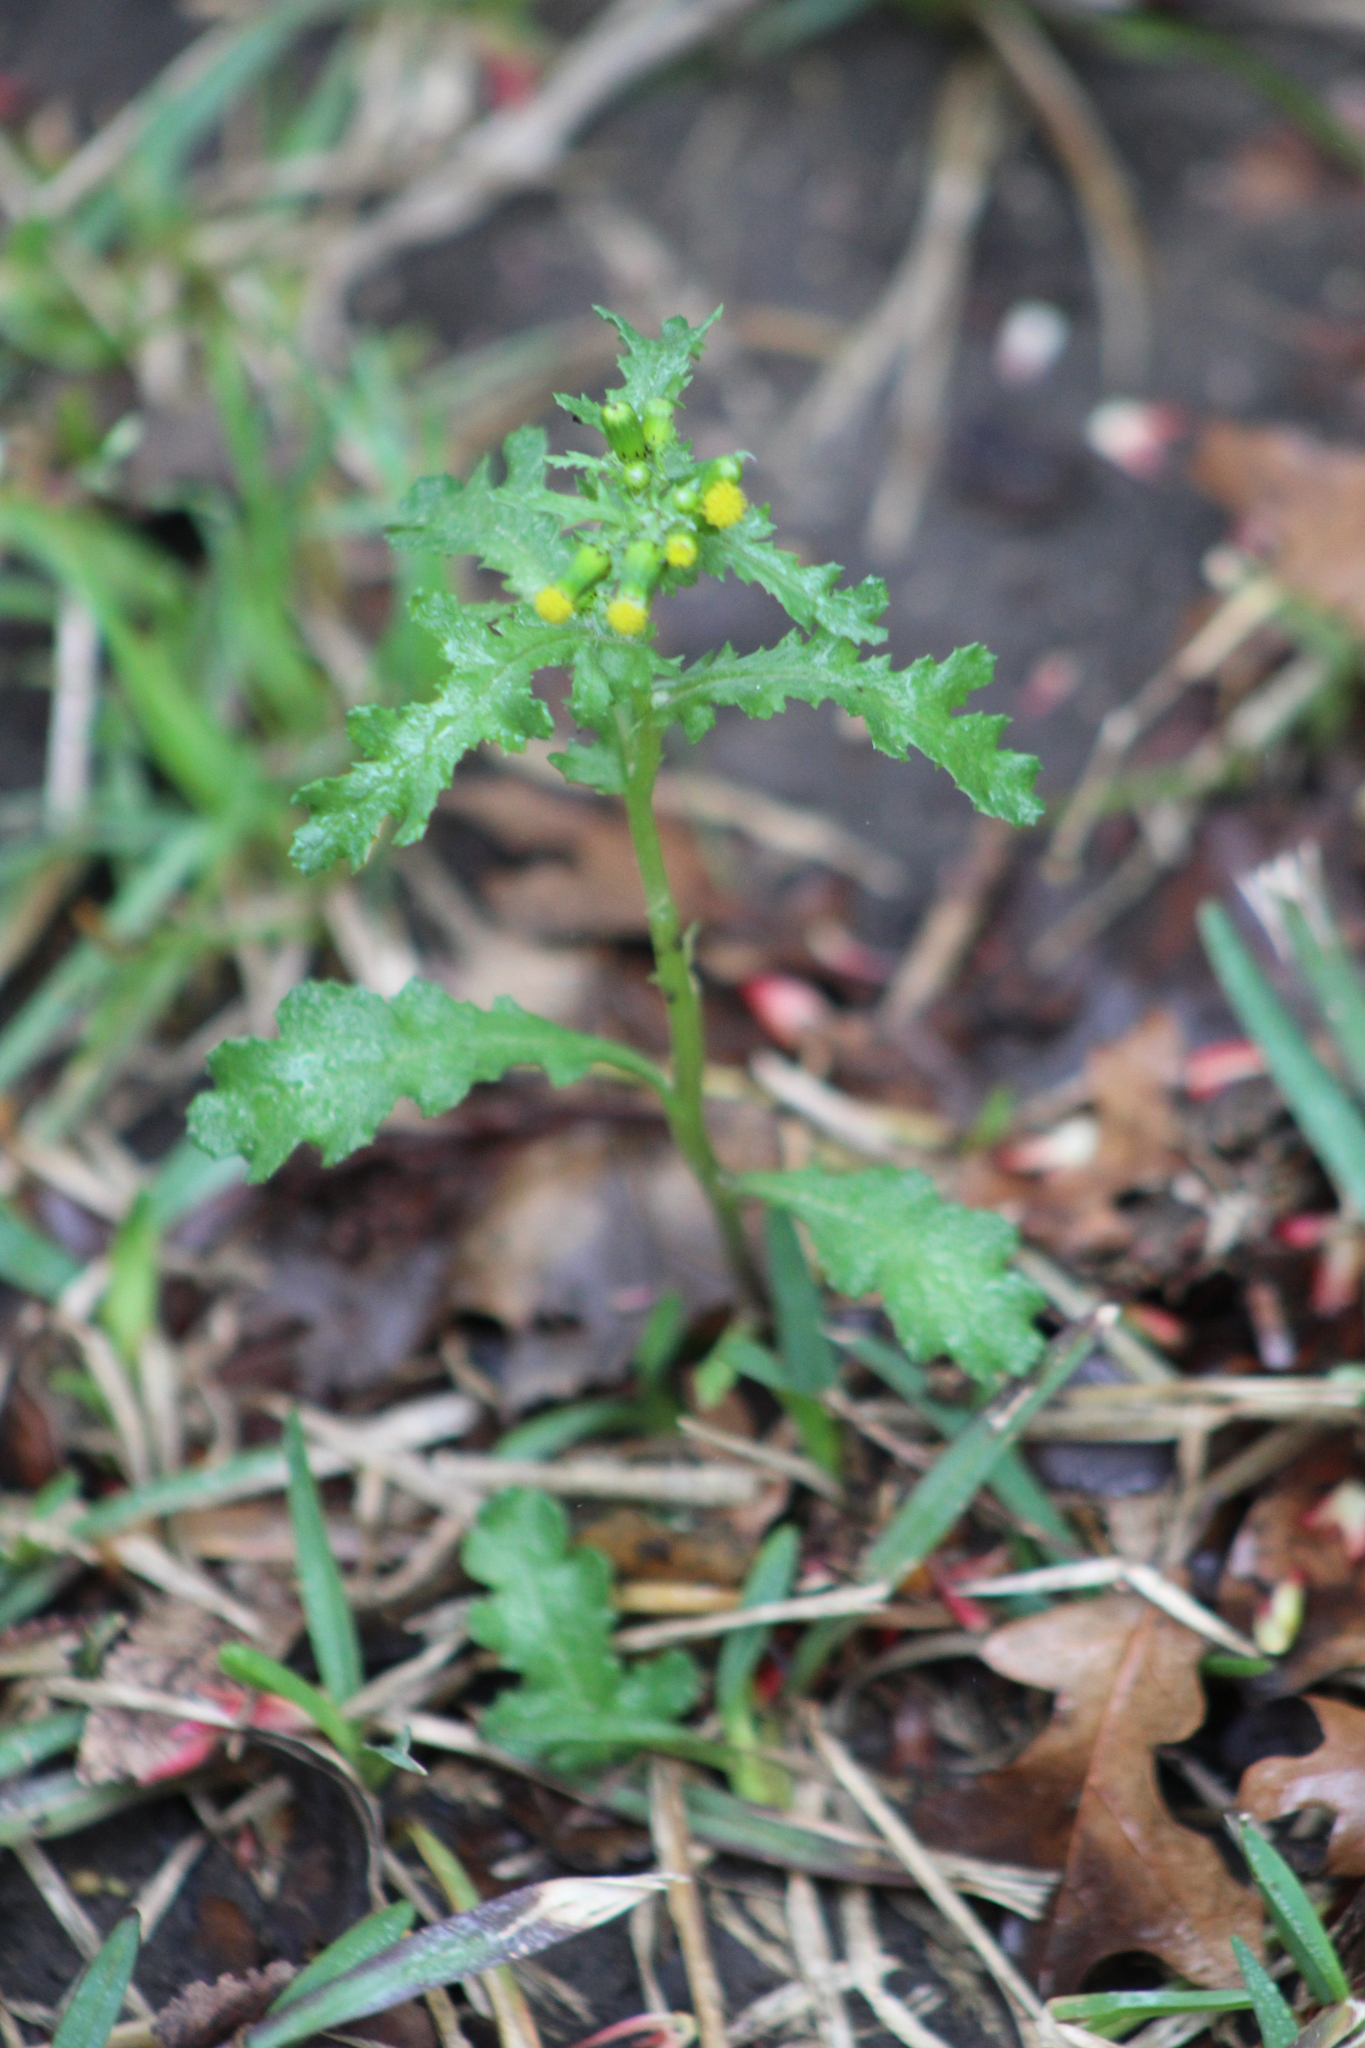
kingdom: Plantae
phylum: Tracheophyta
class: Magnoliopsida
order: Asterales
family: Asteraceae
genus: Senecio
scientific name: Senecio vulgaris
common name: Old-man-in-the-spring
